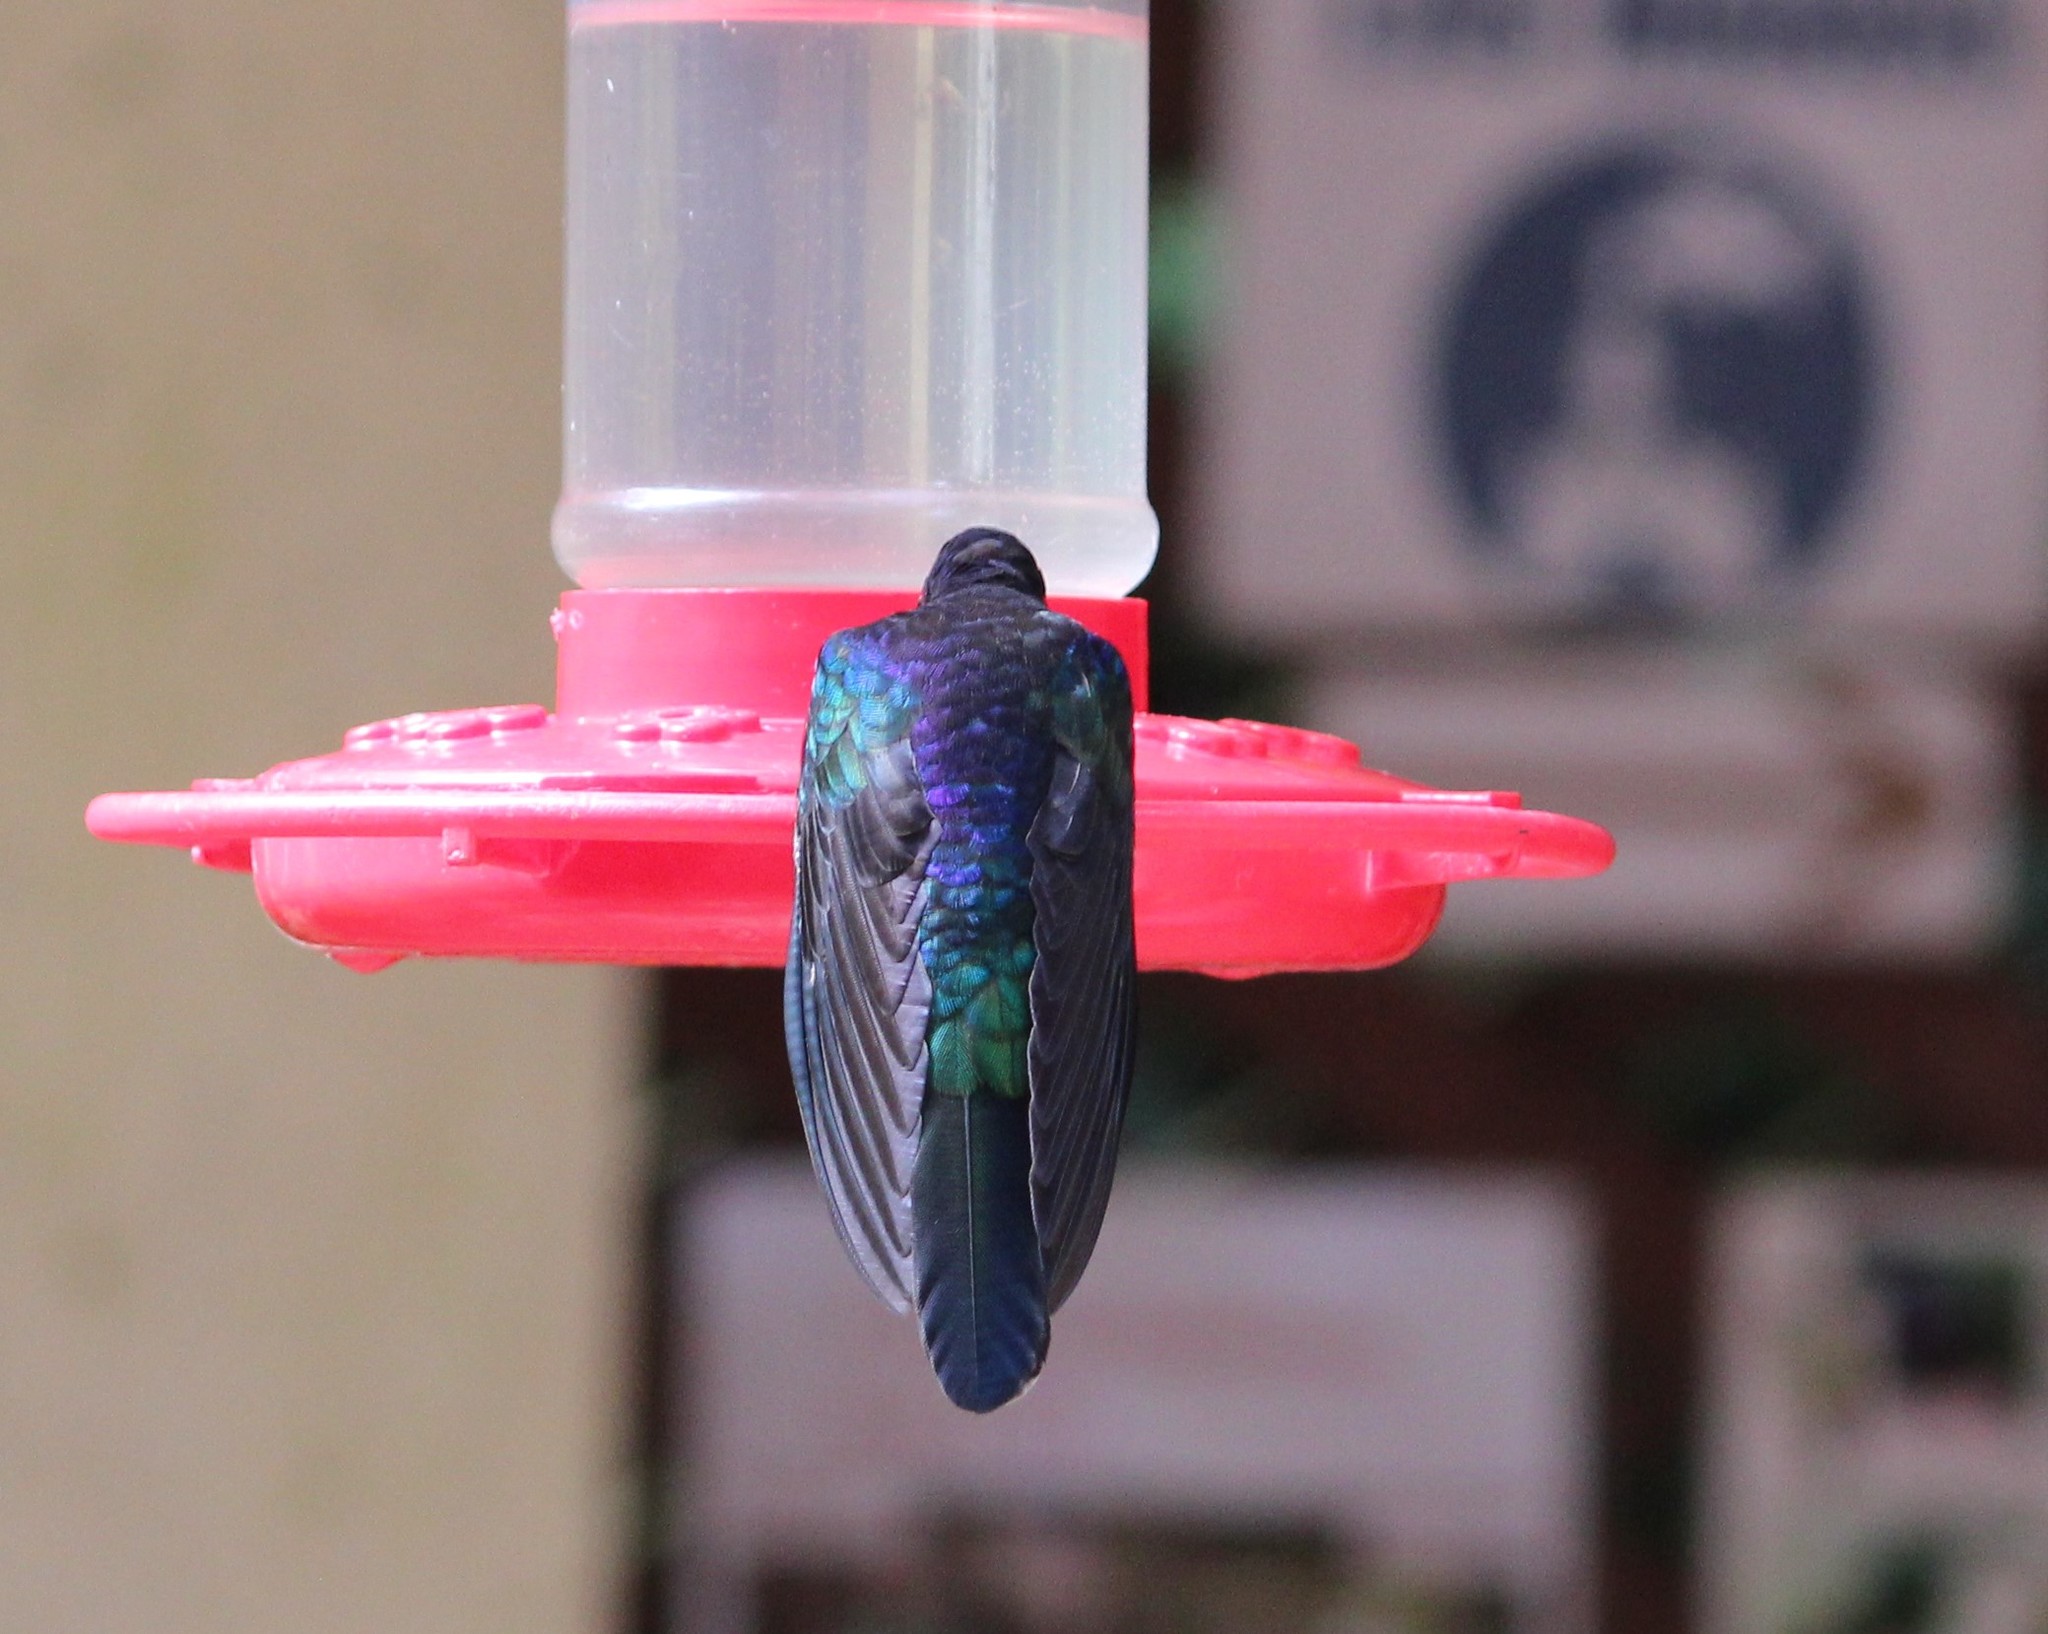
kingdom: Animalia
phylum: Chordata
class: Aves
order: Apodiformes
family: Trochilidae
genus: Campylopterus
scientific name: Campylopterus hemileucurus
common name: Violet sabrewing
